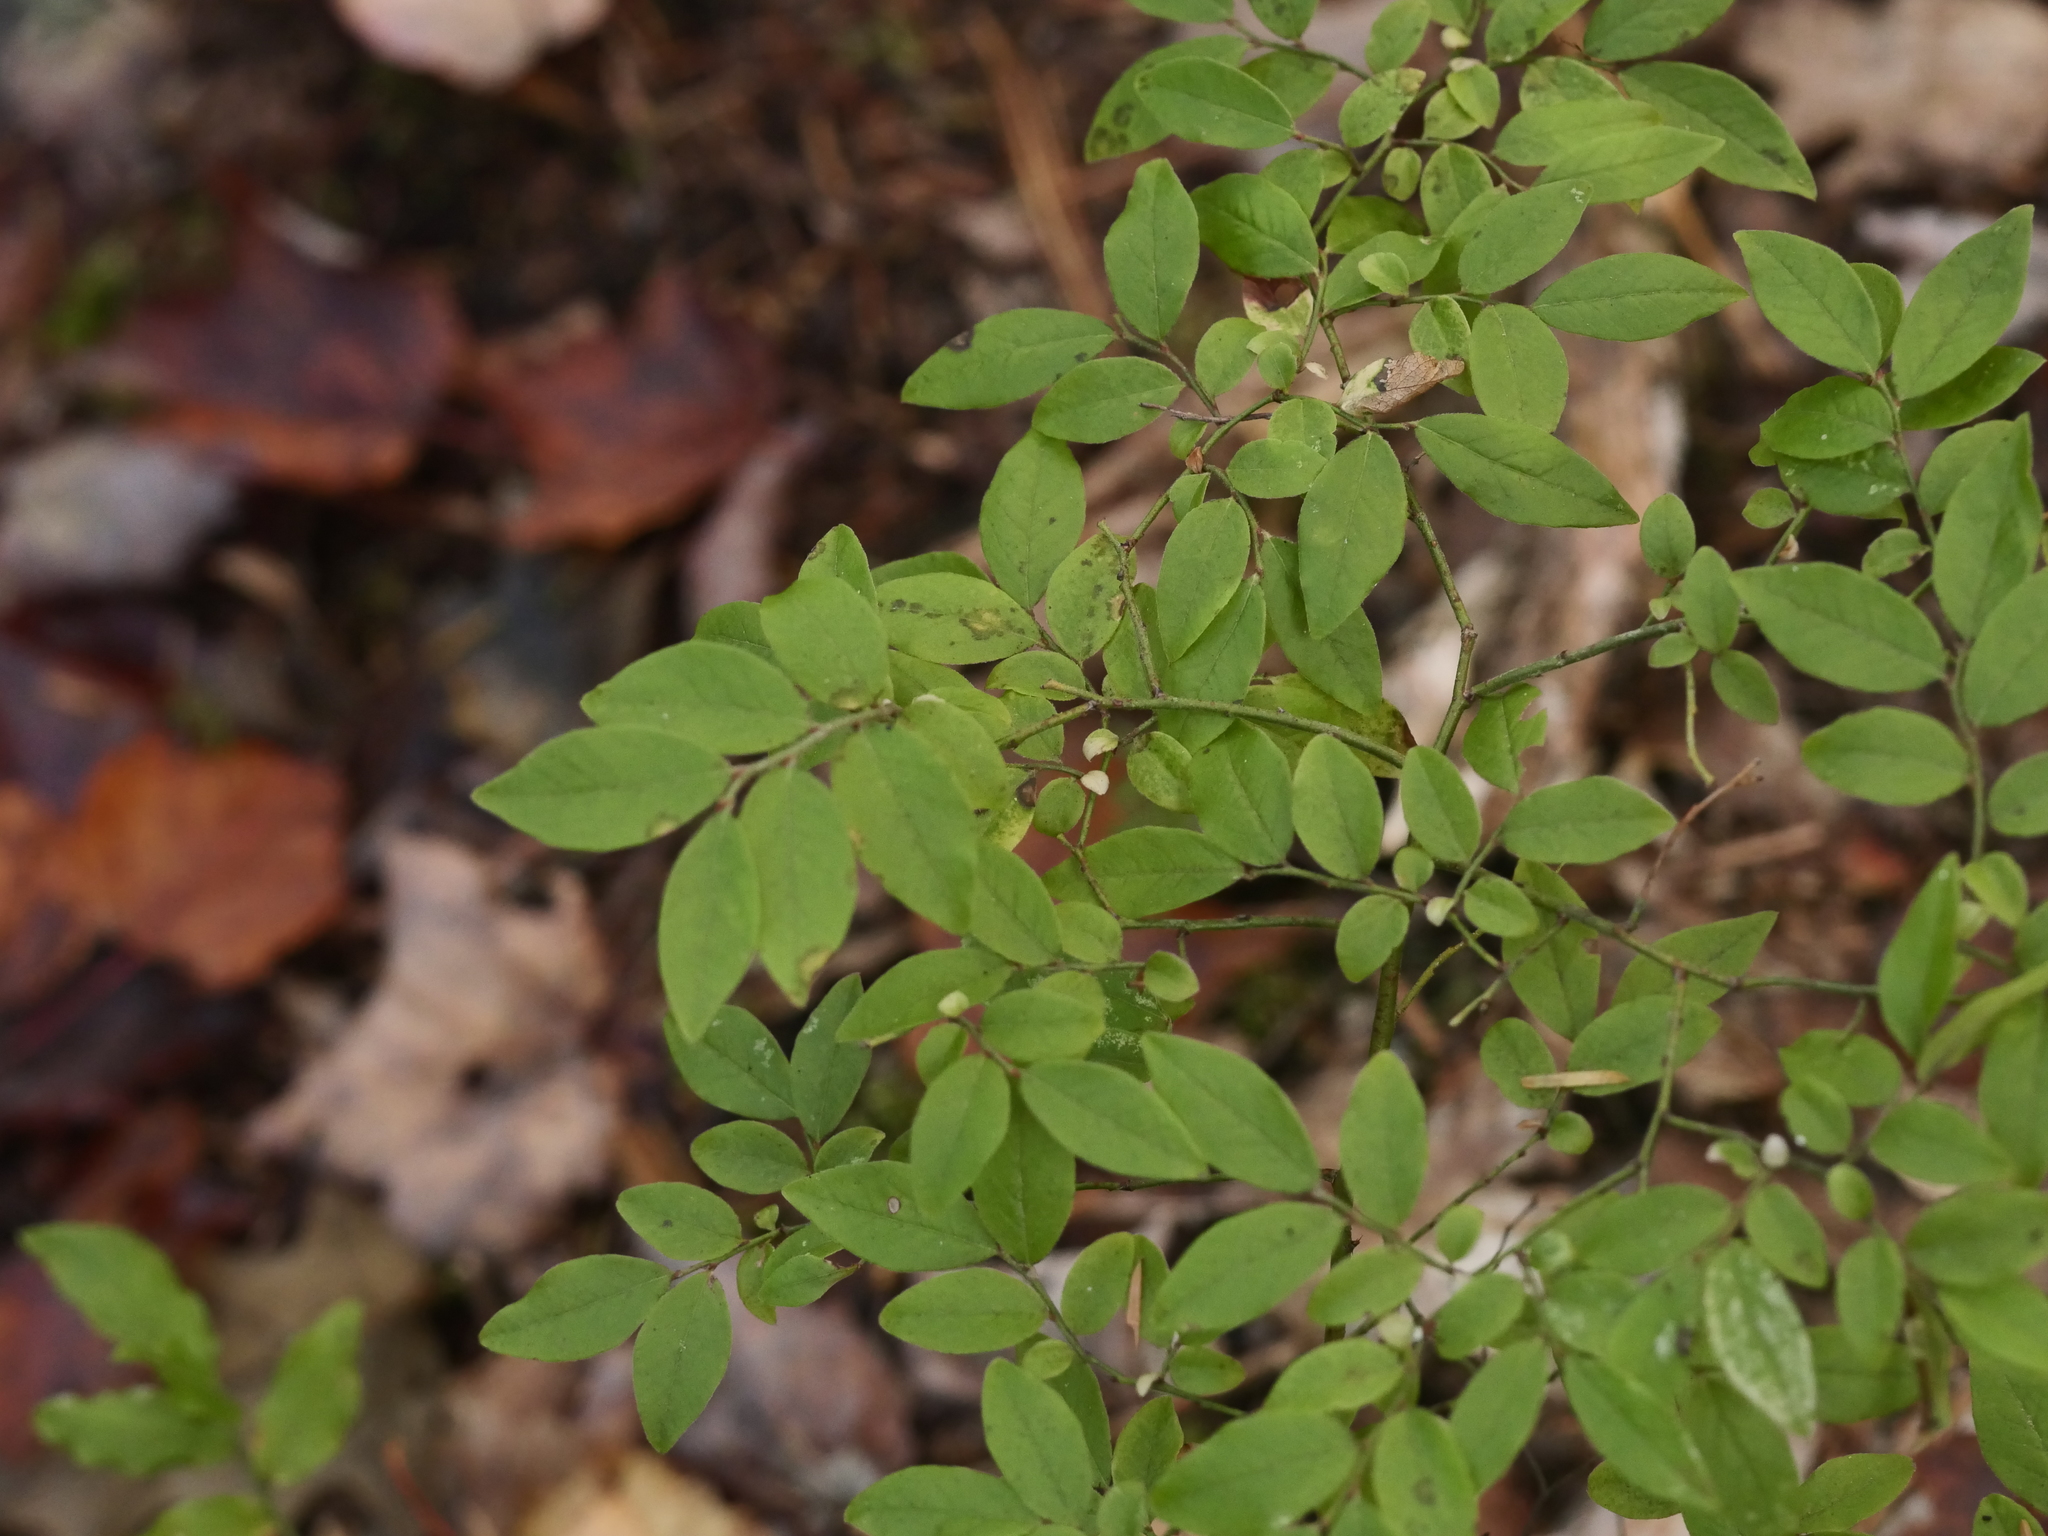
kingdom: Plantae
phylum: Tracheophyta
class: Magnoliopsida
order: Ericales
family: Ericaceae
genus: Vaccinium
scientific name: Vaccinium angustifolium
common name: Early lowbush blueberry
